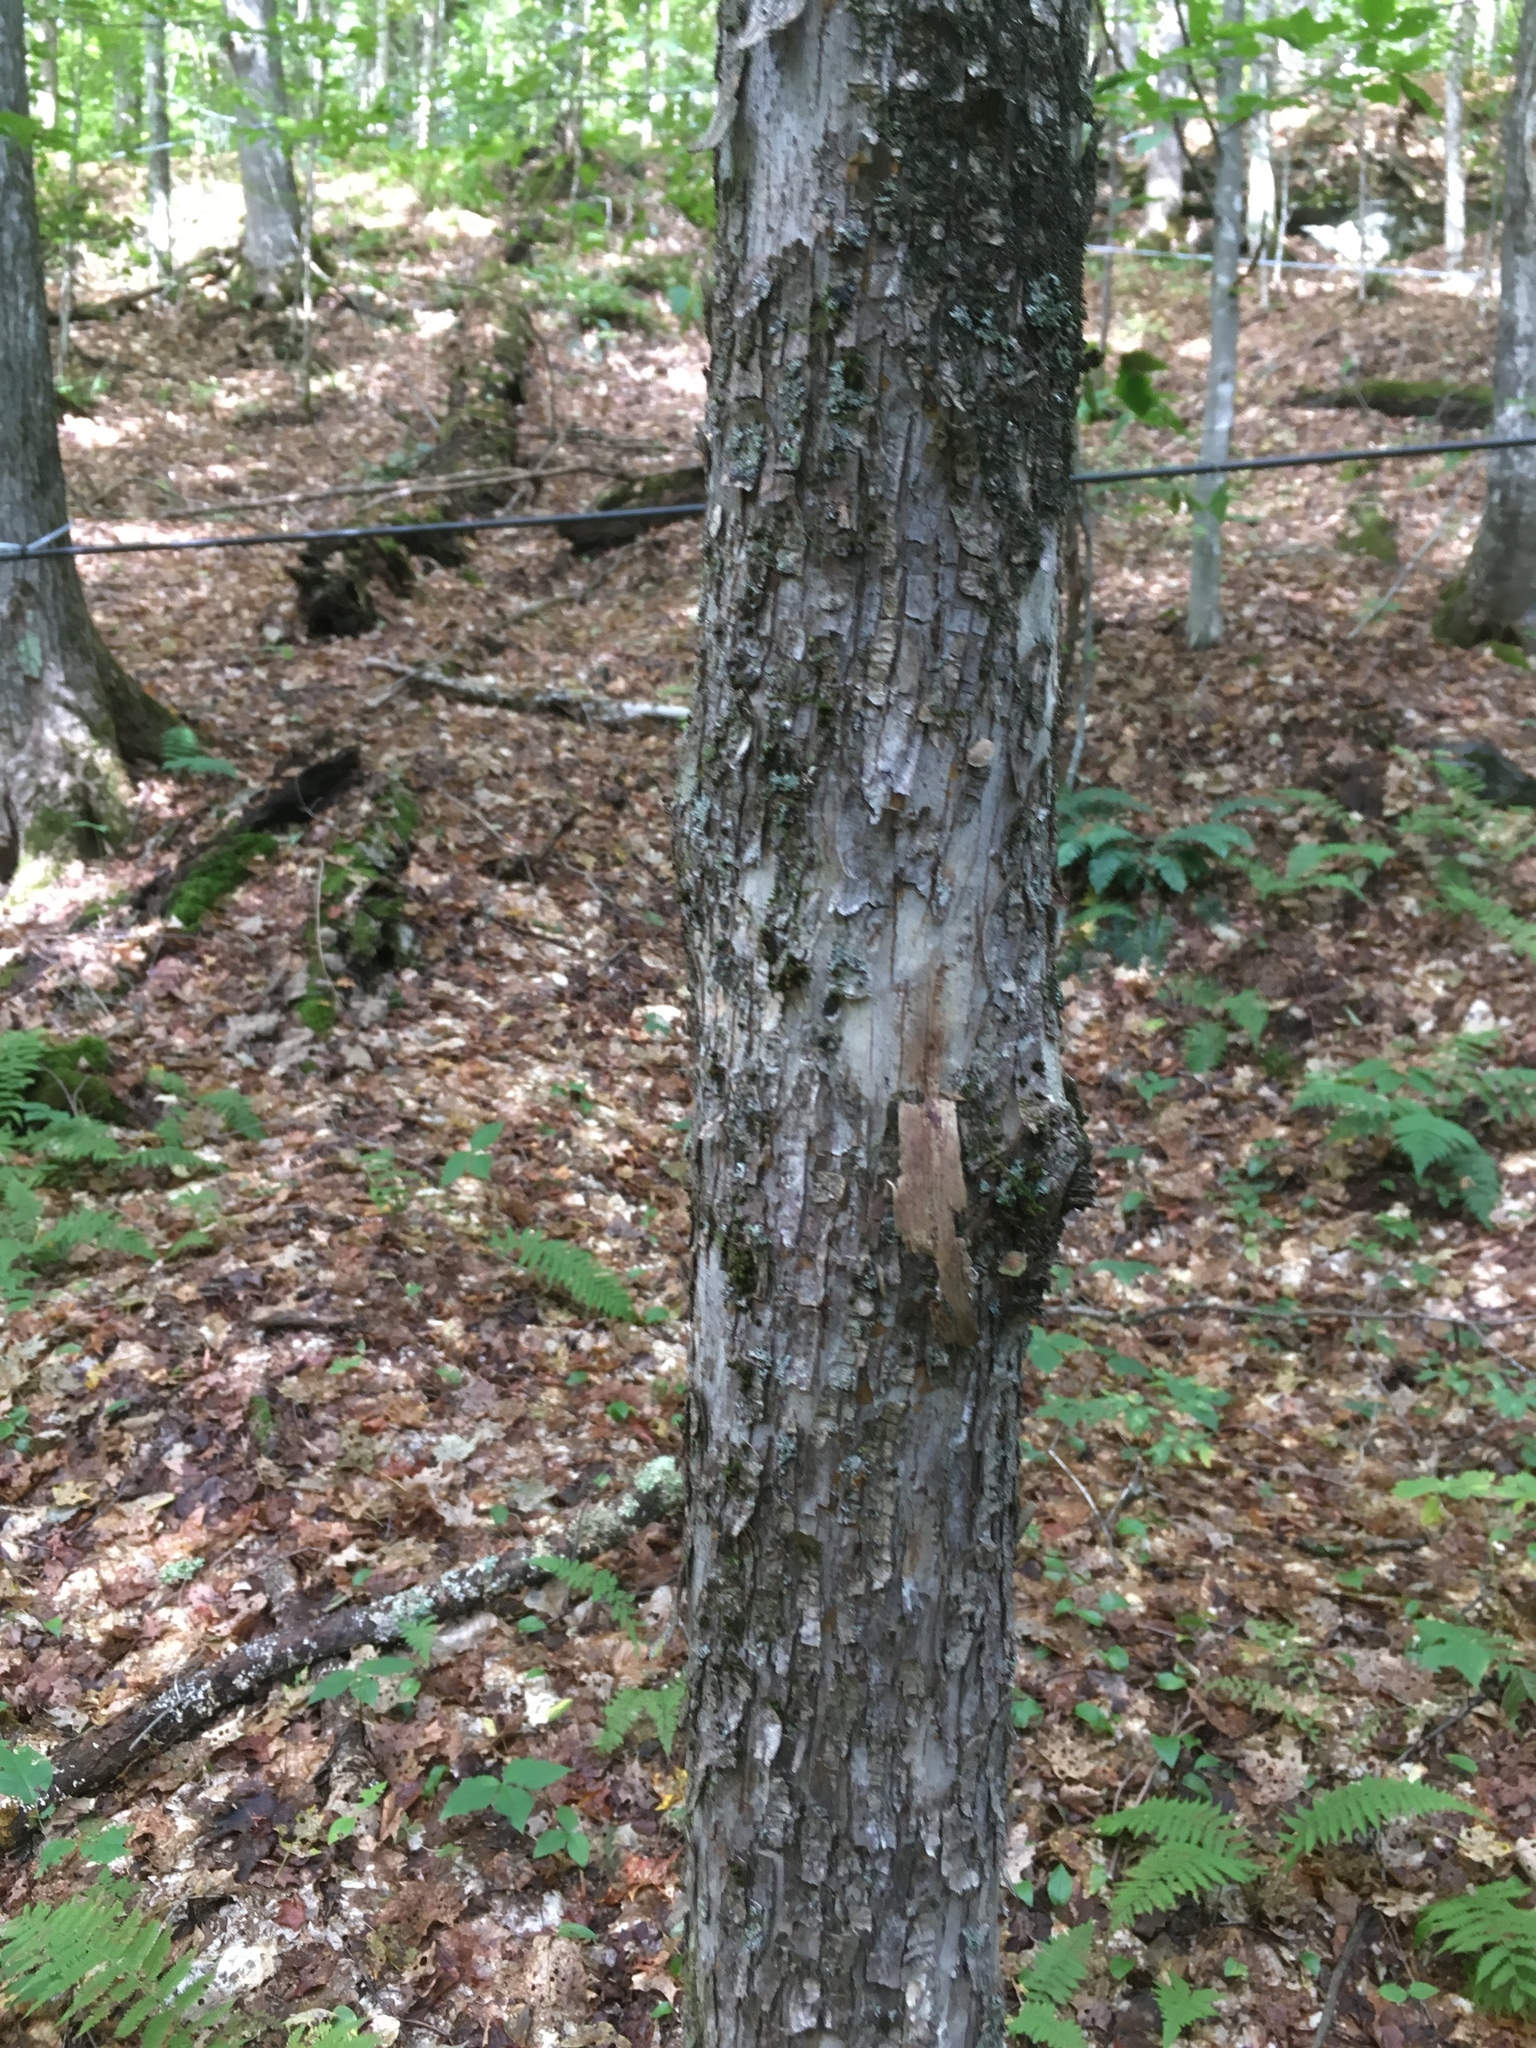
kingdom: Plantae
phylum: Tracheophyta
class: Magnoliopsida
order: Fagales
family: Betulaceae
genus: Ostrya
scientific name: Ostrya virginiana
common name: Ironwood
